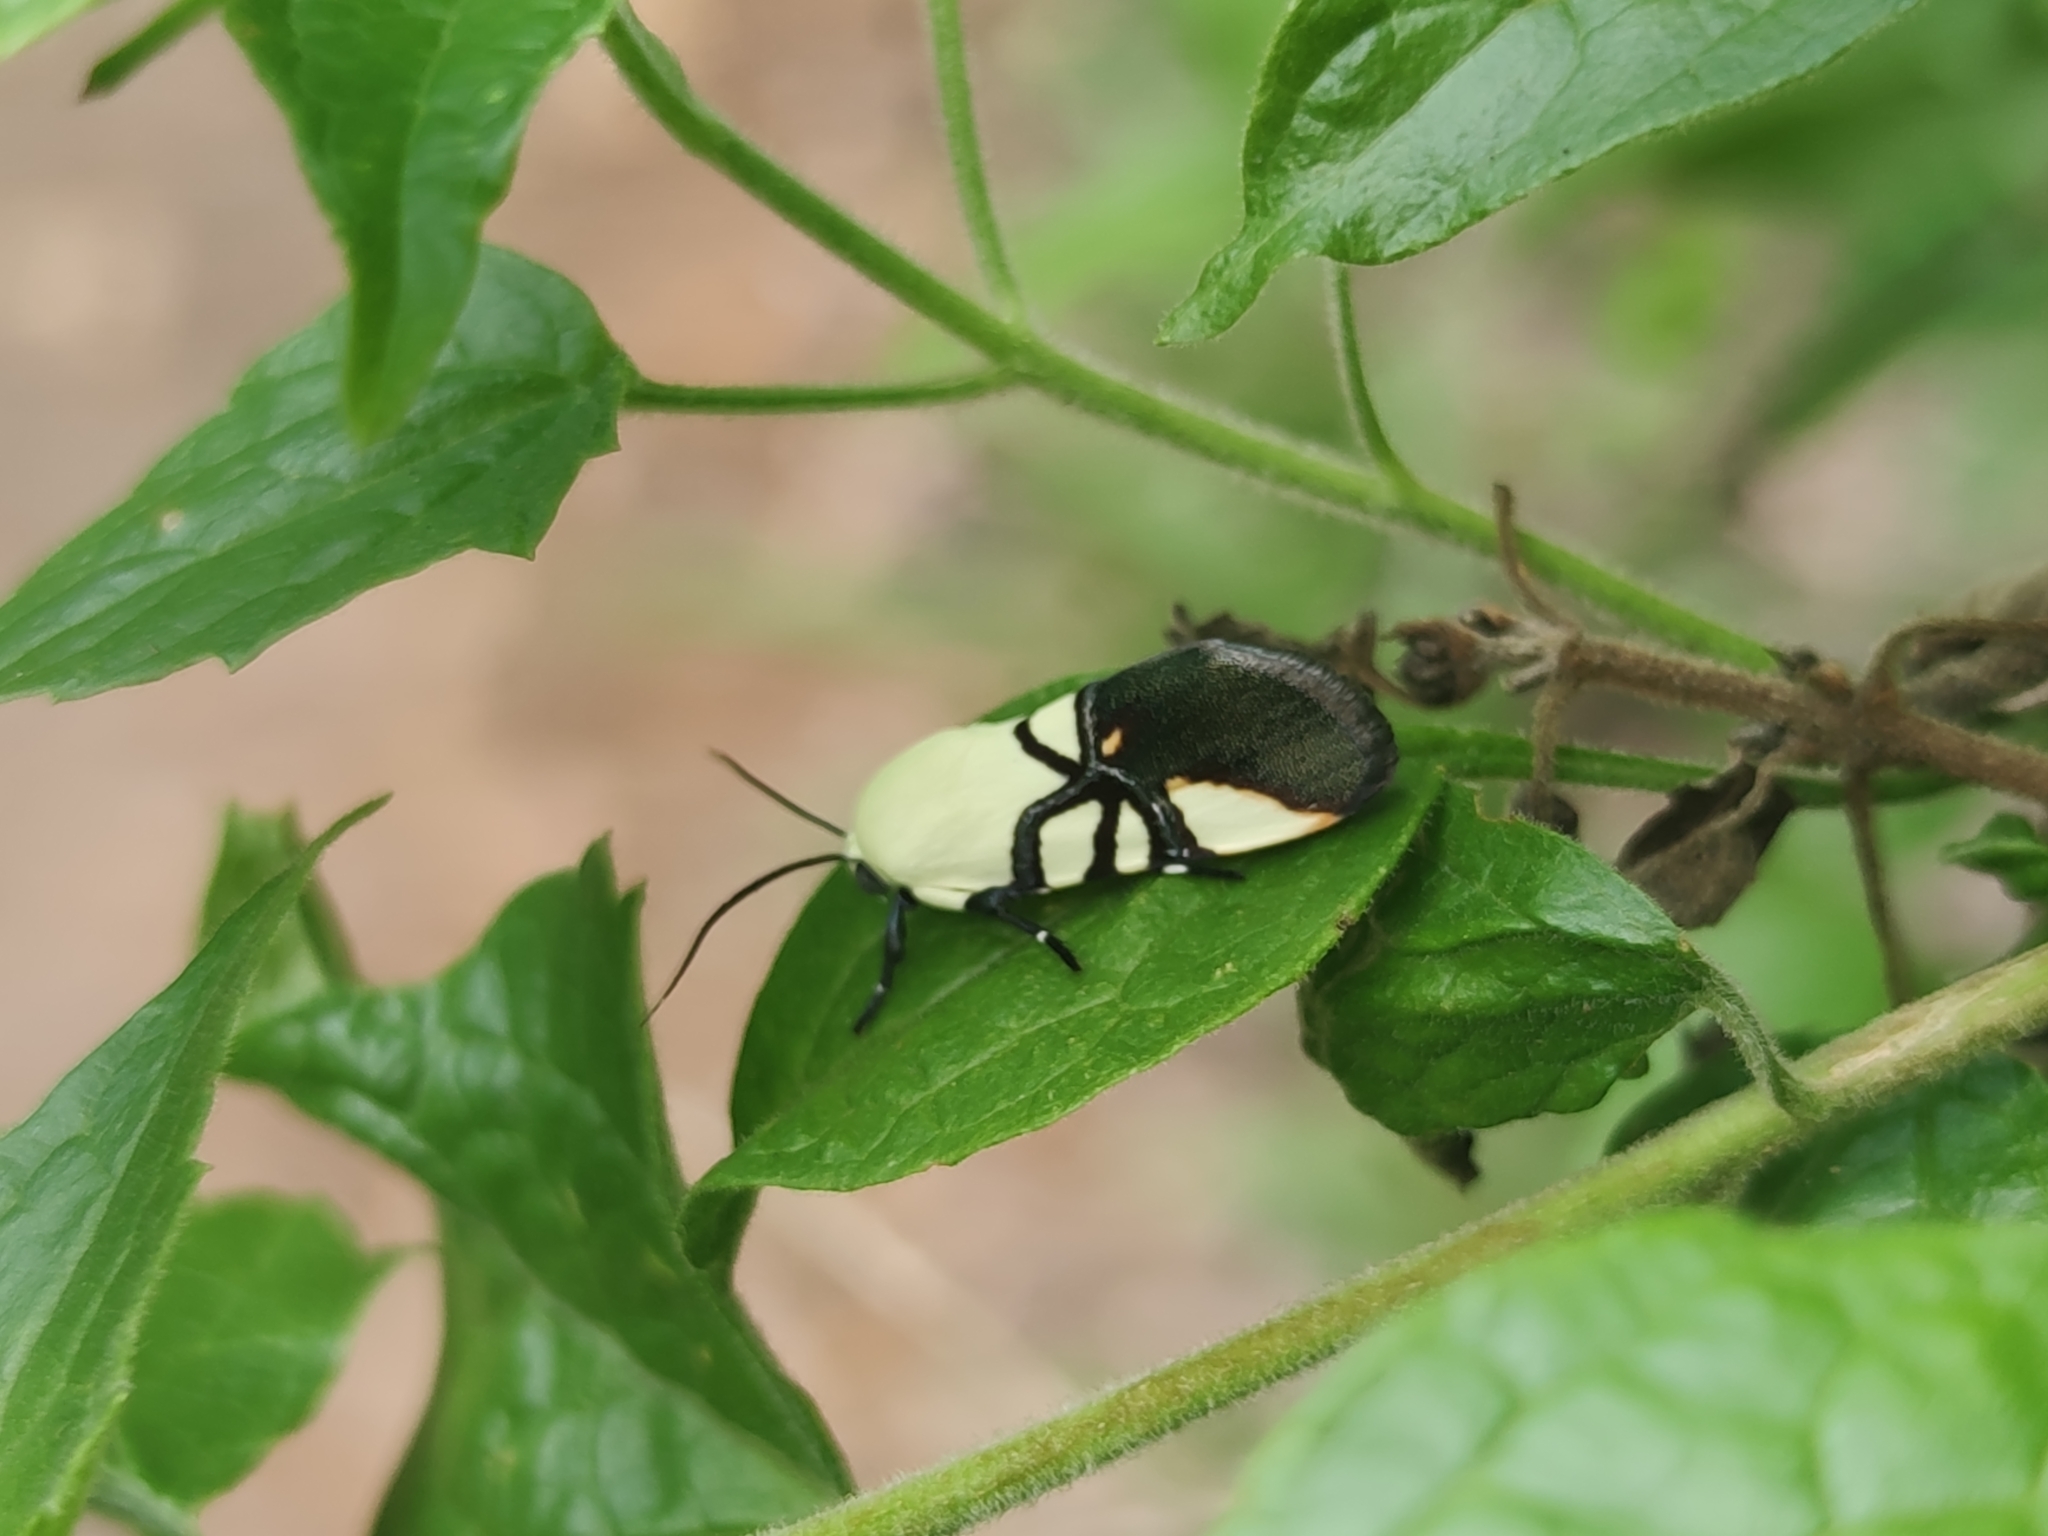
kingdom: Animalia
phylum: Arthropoda
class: Insecta
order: Lepidoptera
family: Noctuidae
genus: Eusceptis
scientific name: Eusceptis flavifrimbriata
